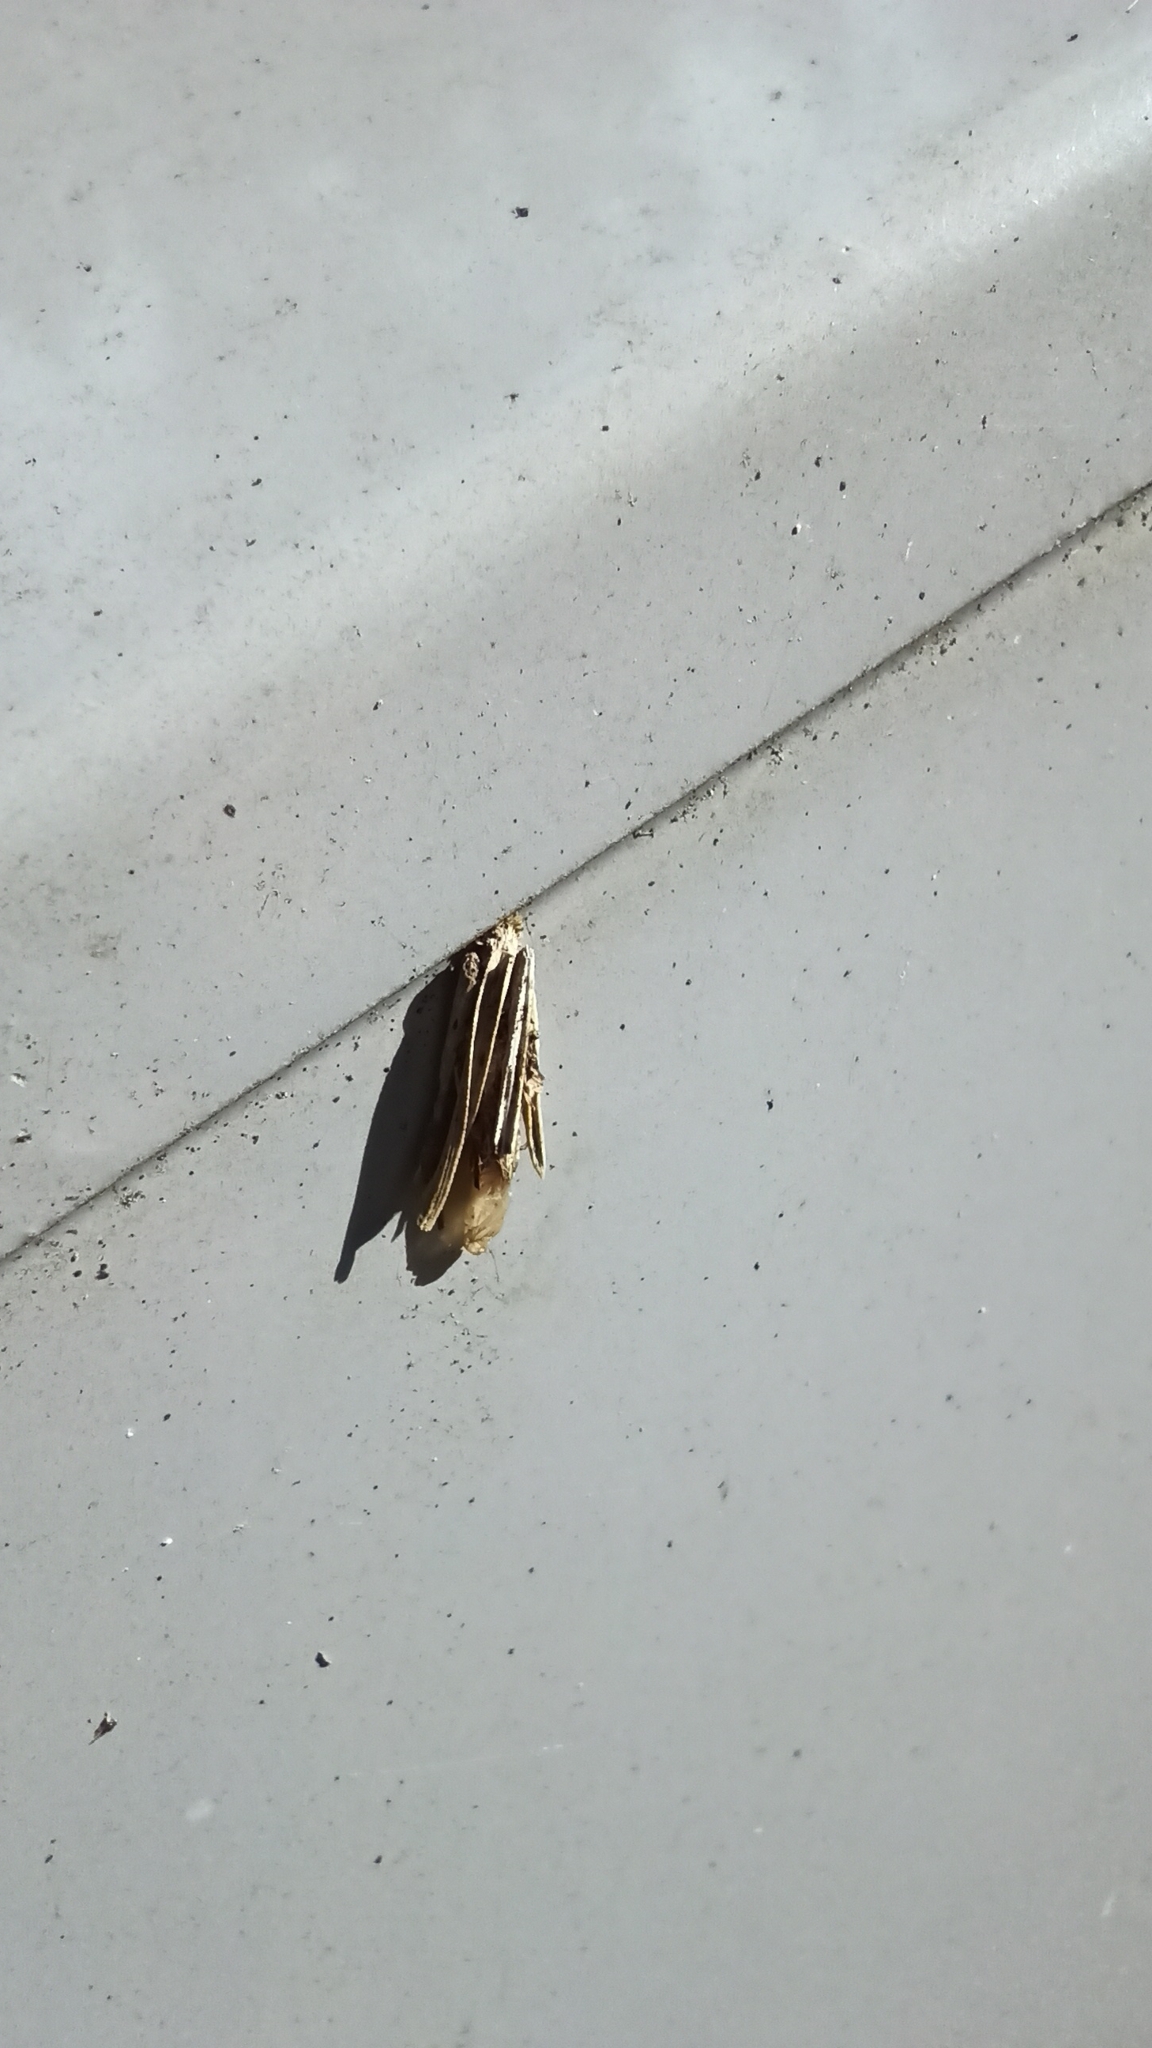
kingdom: Animalia
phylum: Arthropoda
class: Insecta
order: Lepidoptera
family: Psychidae
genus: Psyche
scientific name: Psyche casta
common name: Common sweep
